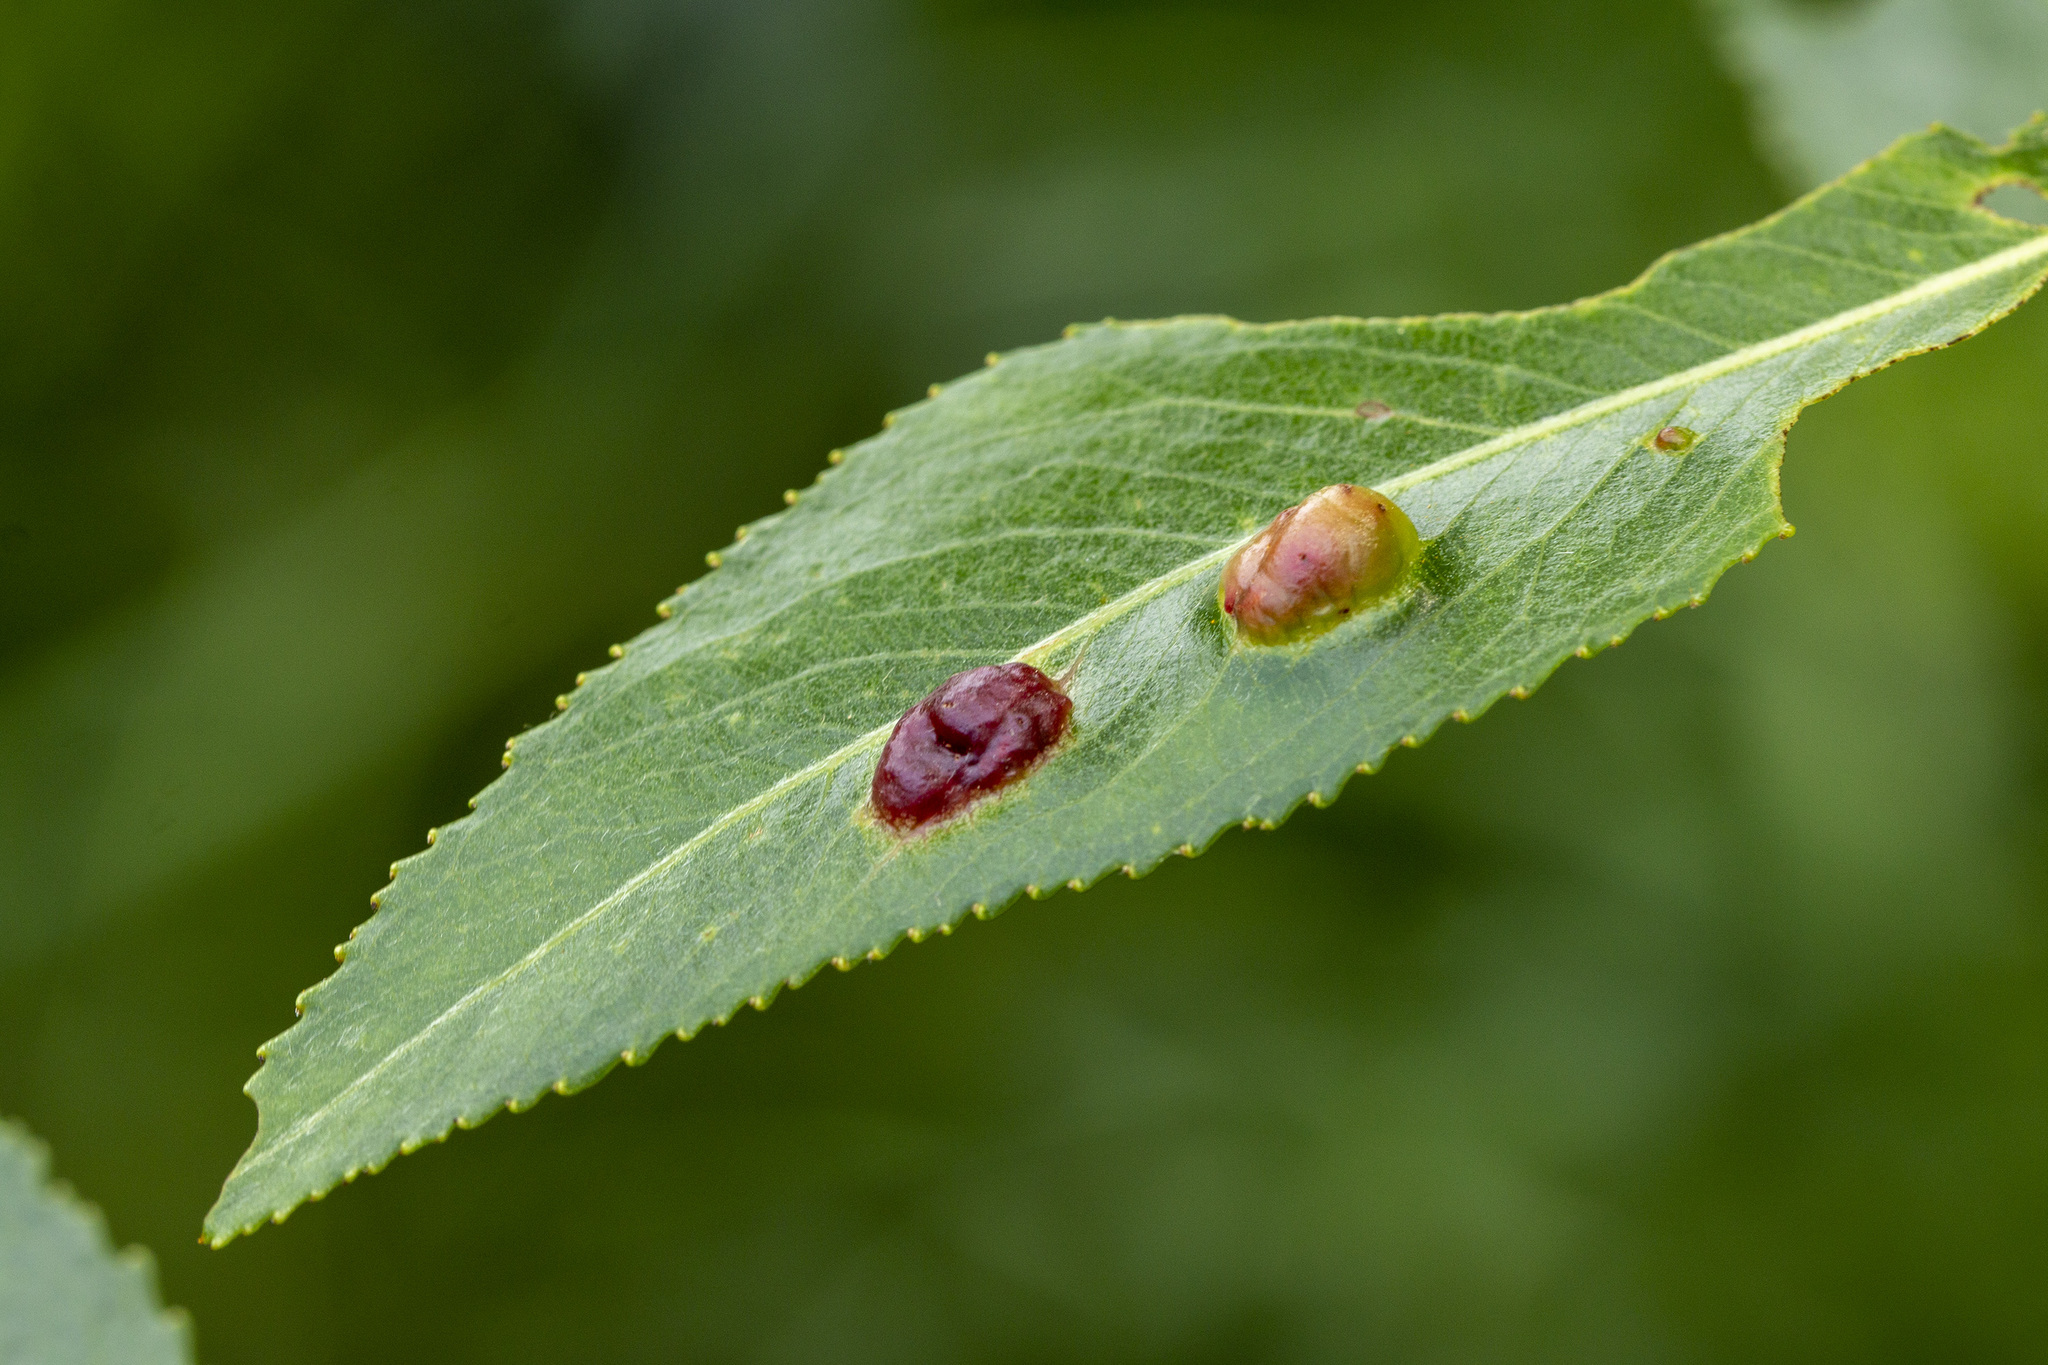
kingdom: Animalia
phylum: Arthropoda
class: Insecta
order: Hymenoptera
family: Tenthredinidae
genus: Pontania
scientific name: Pontania proxima
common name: Common sawfly
